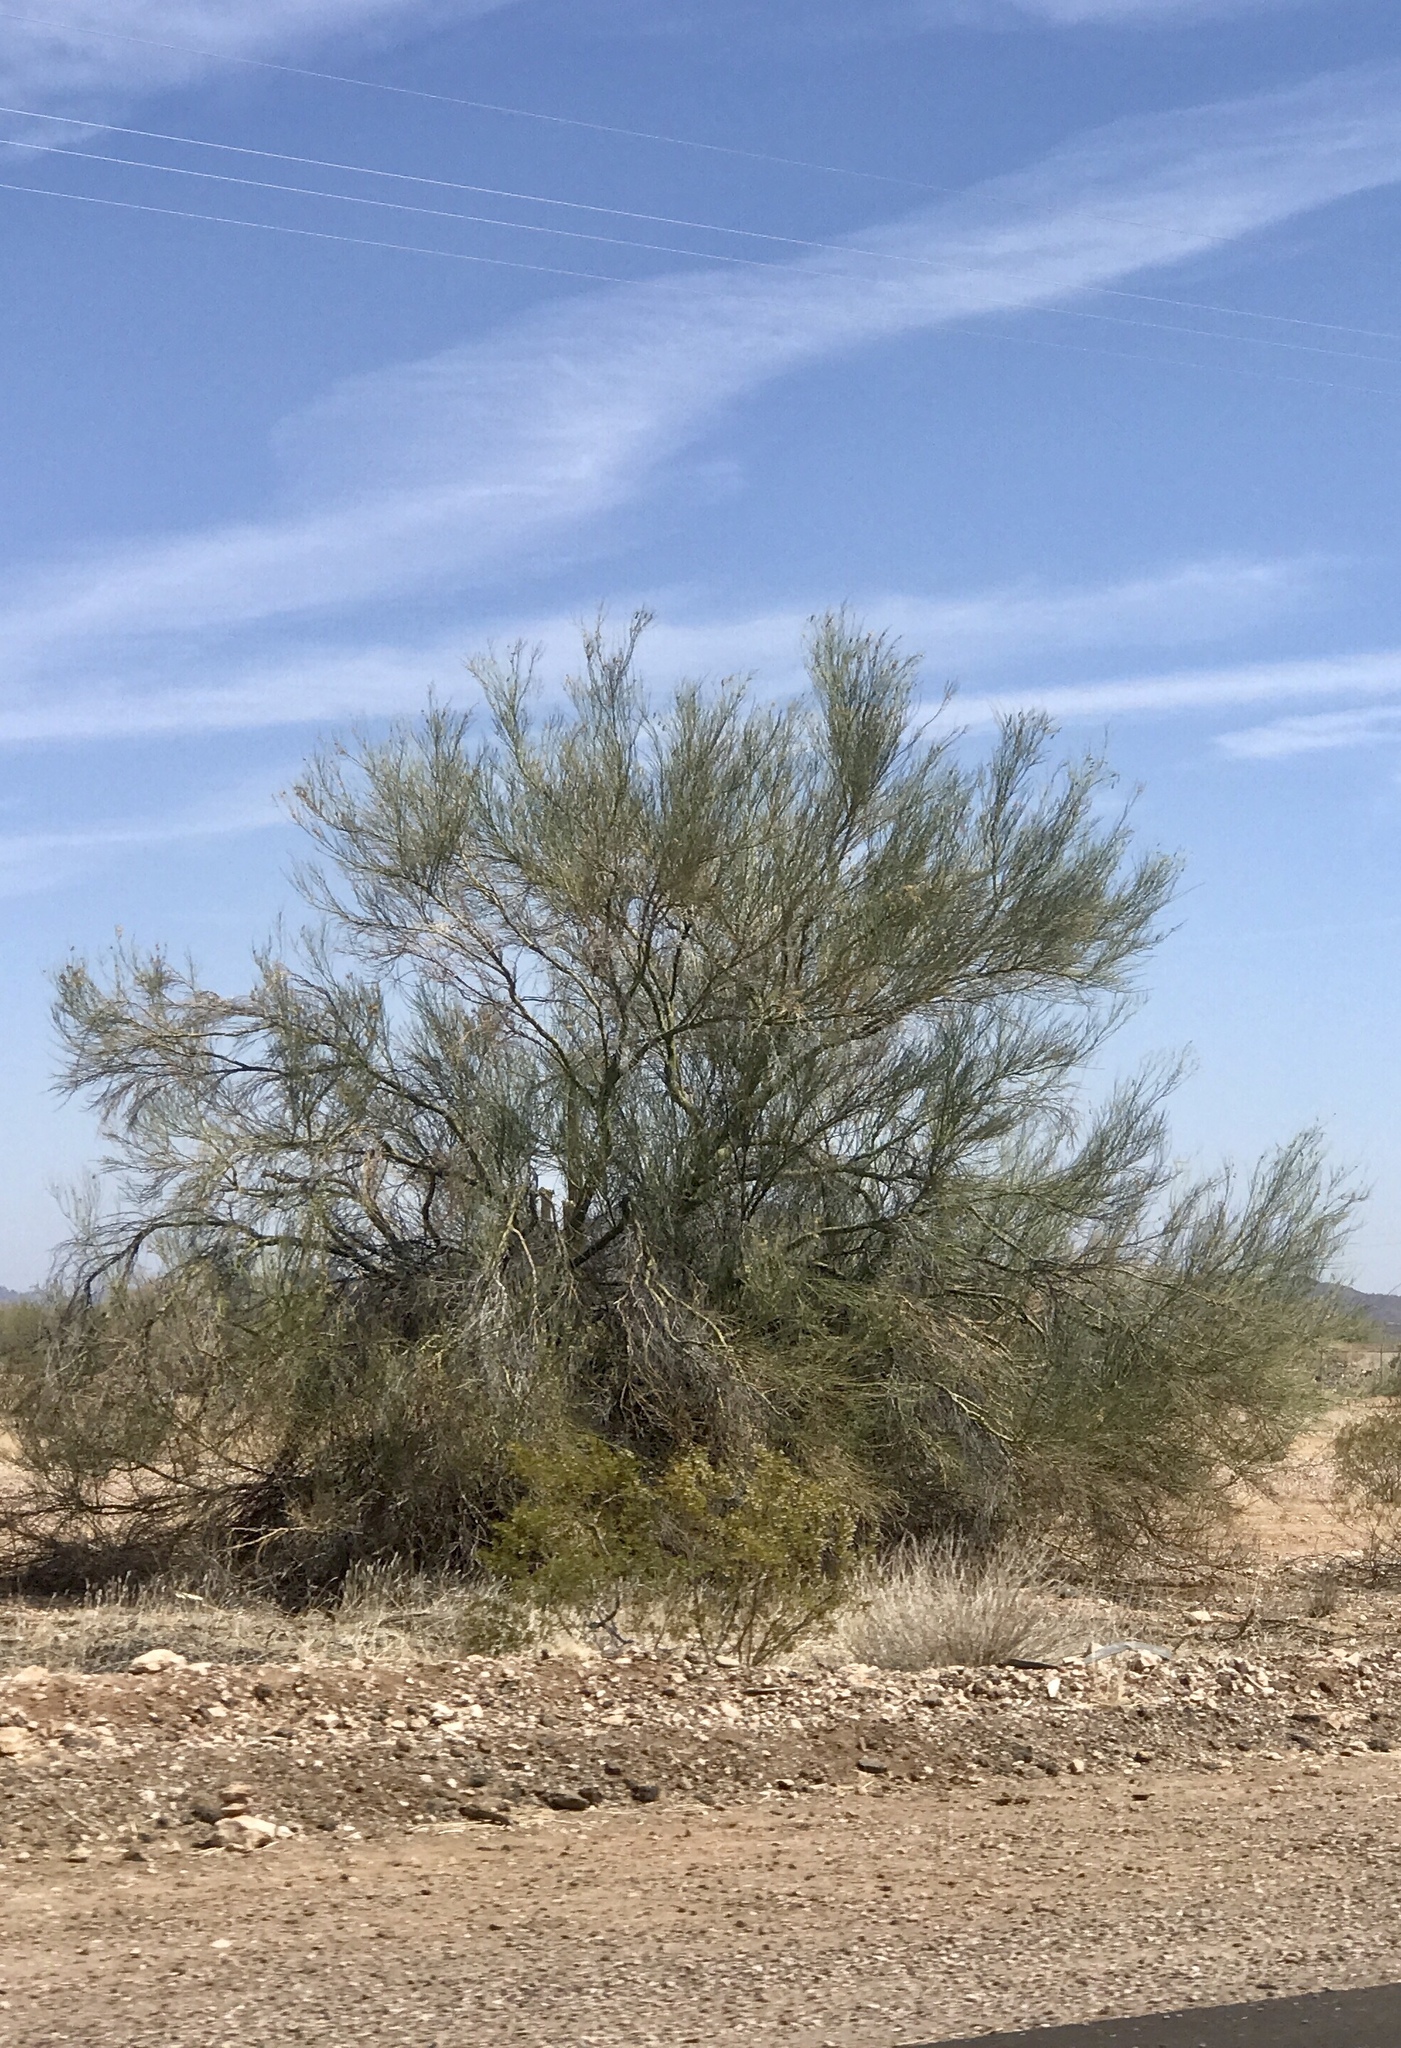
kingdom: Plantae
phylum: Tracheophyta
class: Magnoliopsida
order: Fabales
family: Fabaceae
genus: Parkinsonia
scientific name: Parkinsonia florida
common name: Blue paloverde
